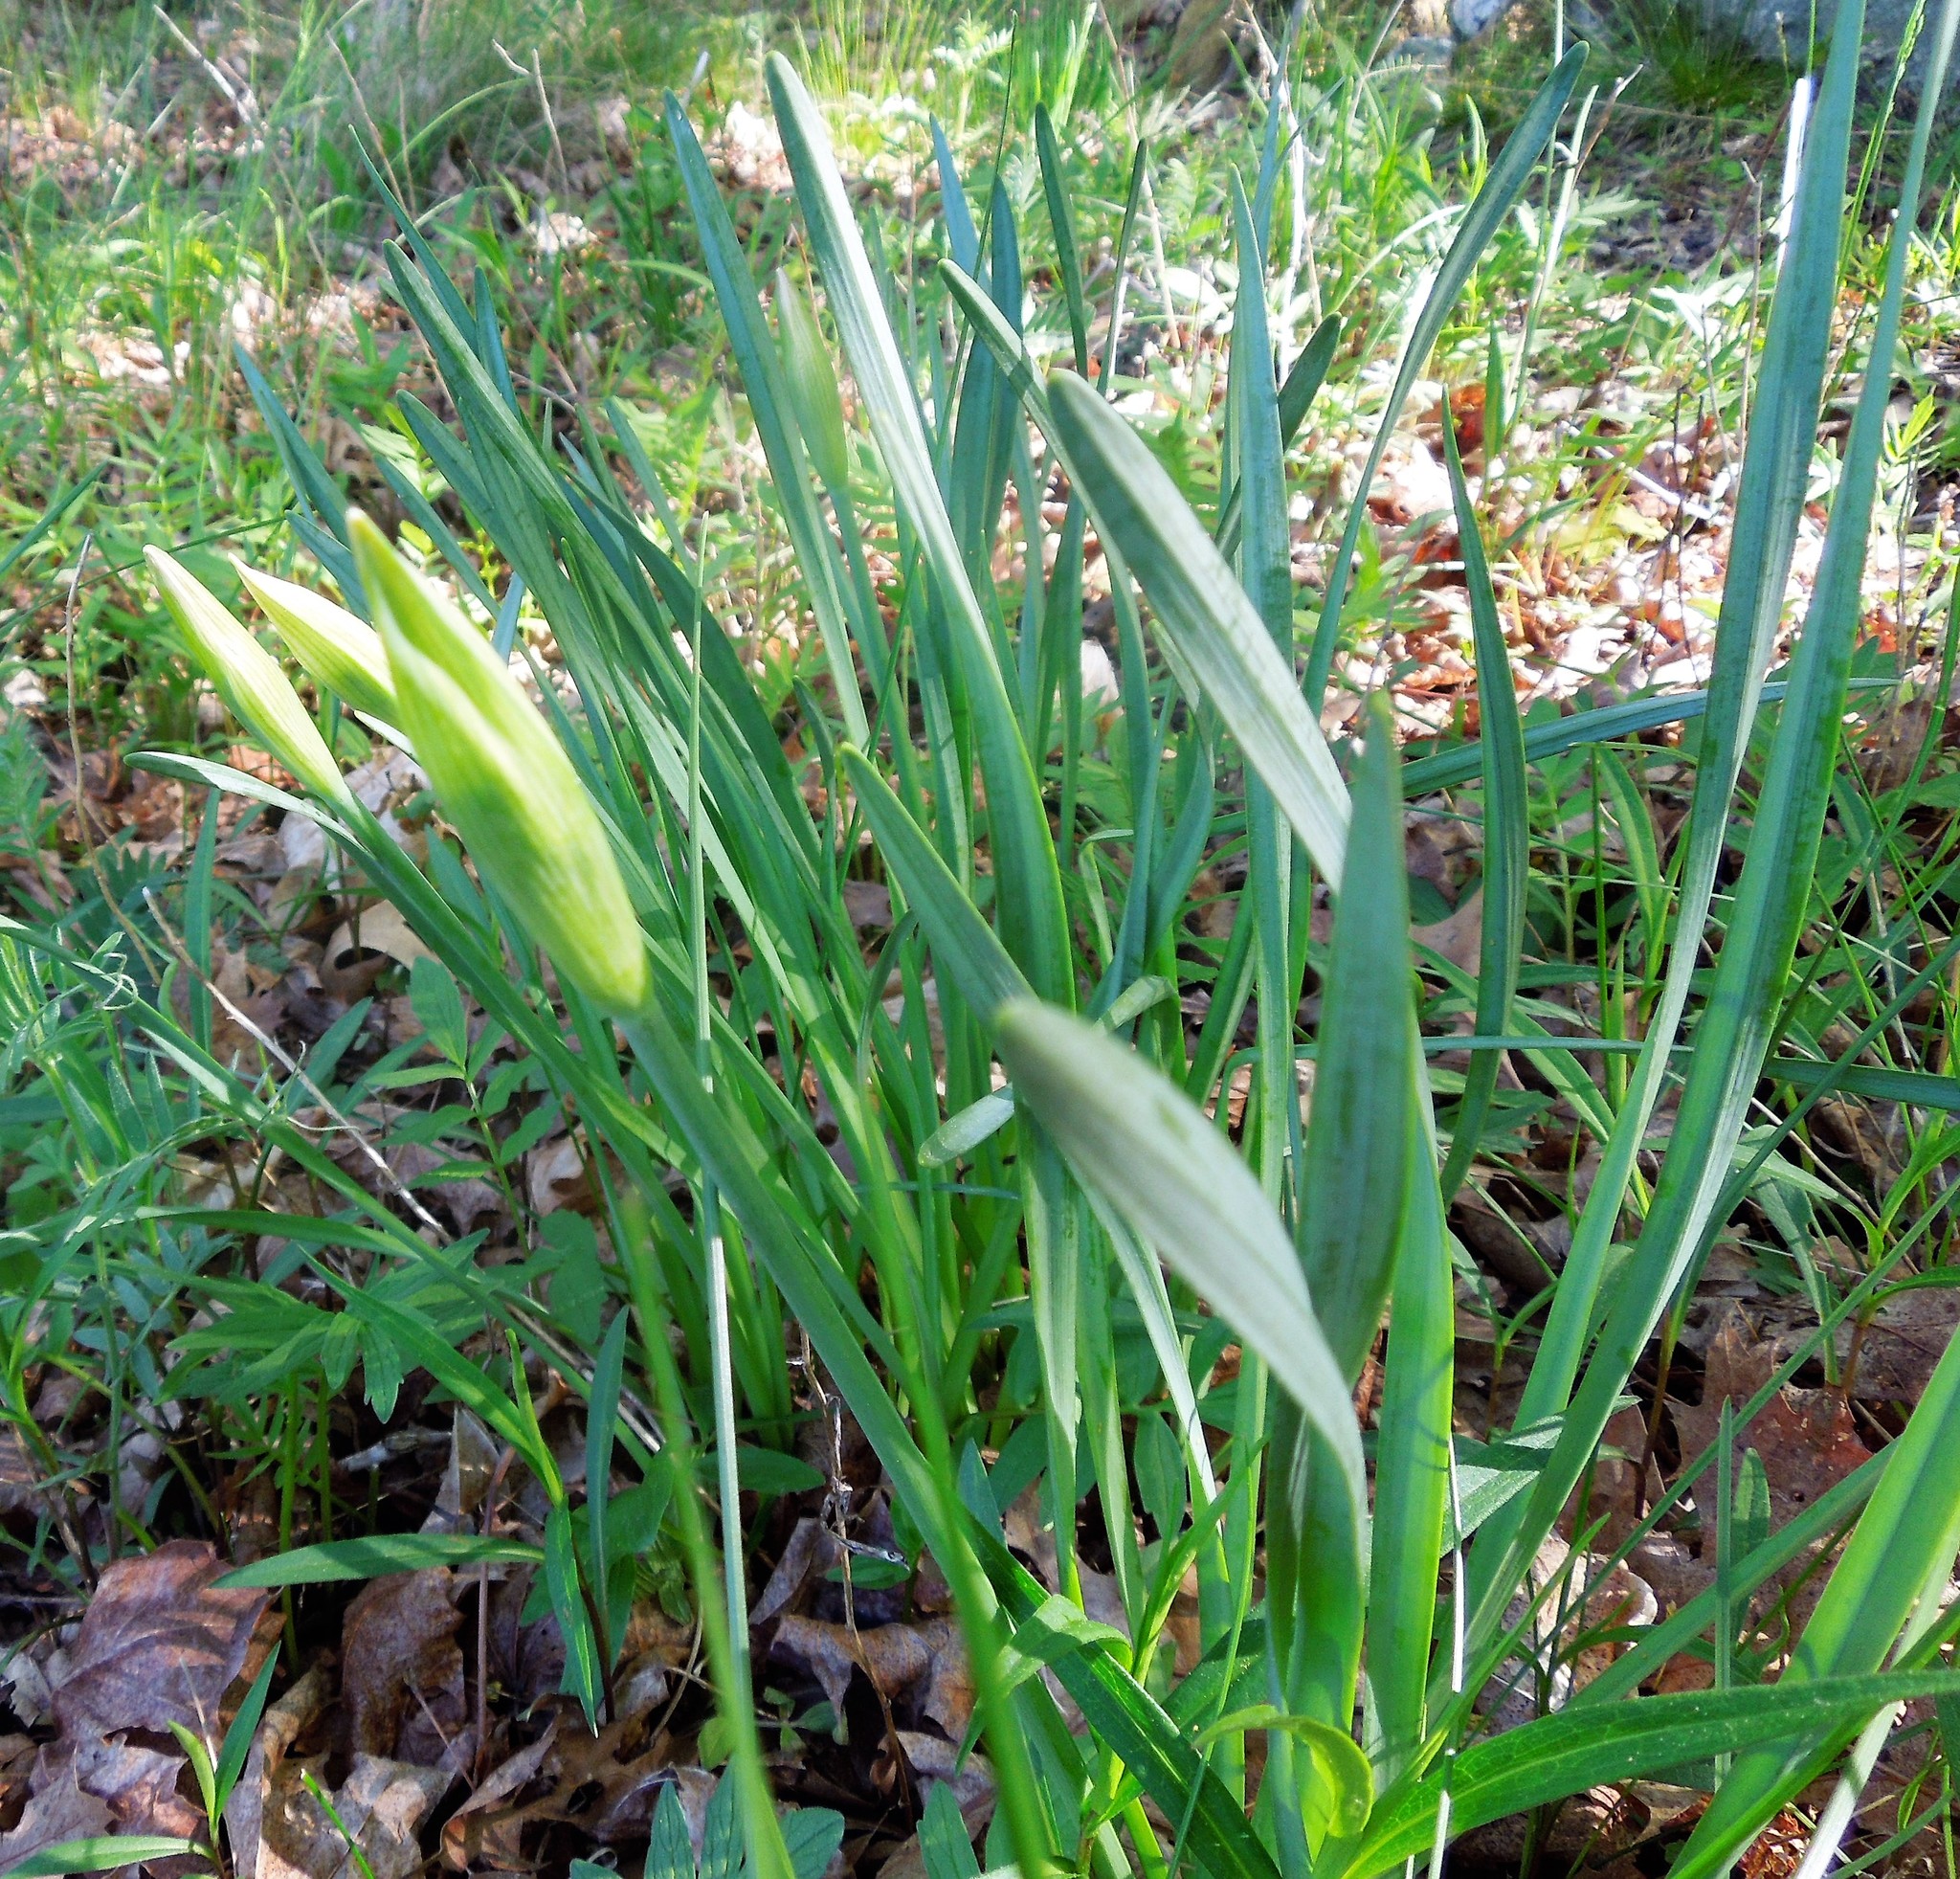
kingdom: Plantae
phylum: Tracheophyta
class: Liliopsida
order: Asparagales
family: Asphodelaceae
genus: Hemerocallis
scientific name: Hemerocallis
